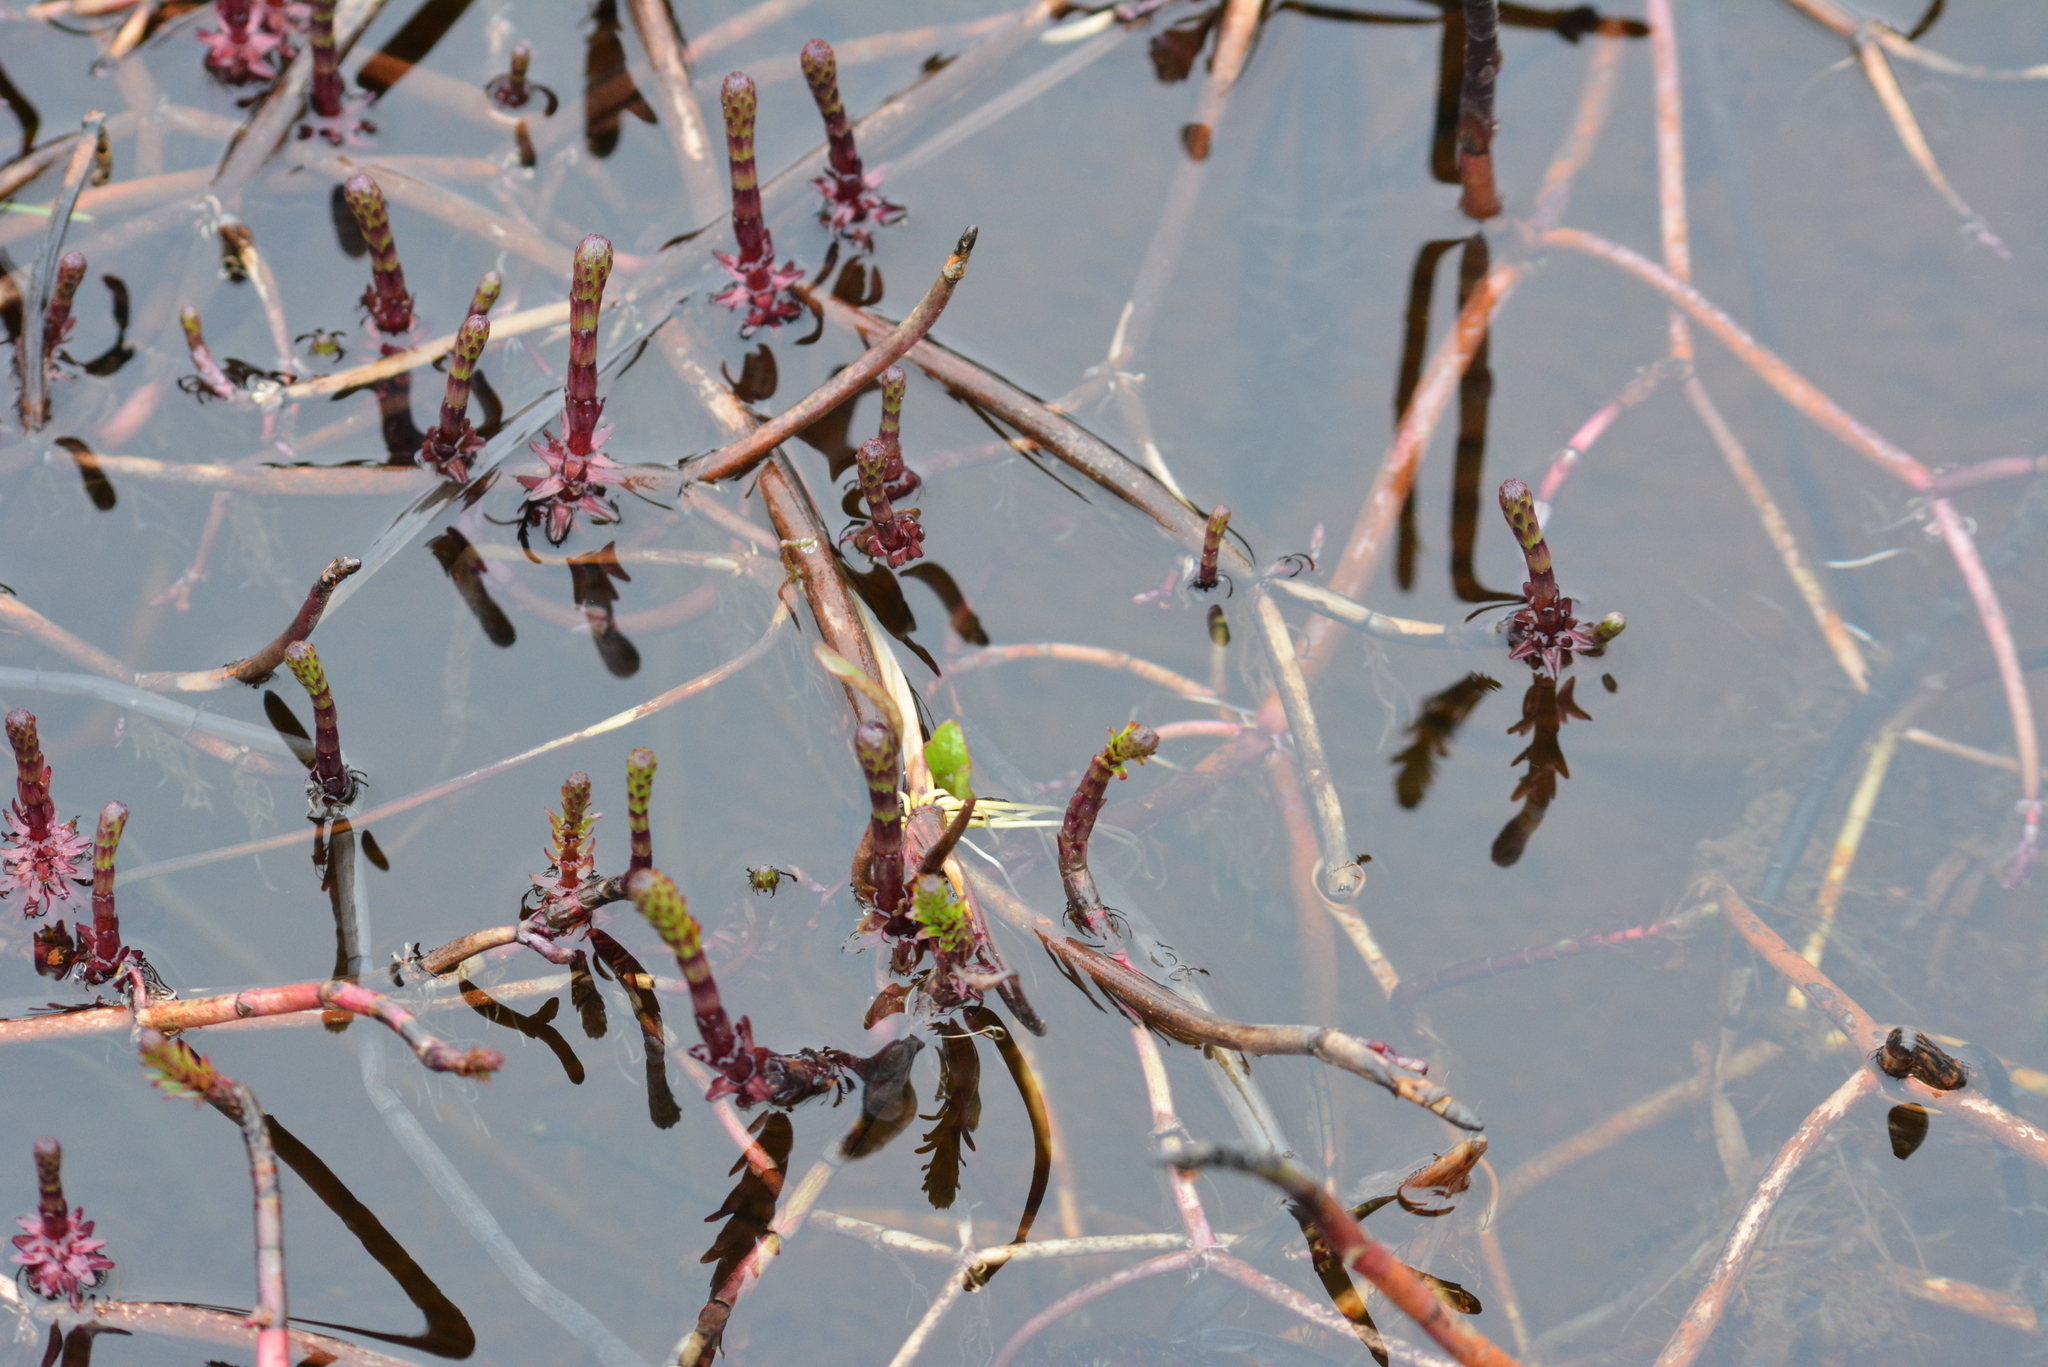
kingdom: Plantae
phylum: Tracheophyta
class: Magnoliopsida
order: Lamiales
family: Plantaginaceae
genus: Hippuris
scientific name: Hippuris vulgaris
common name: Mare's-tail
